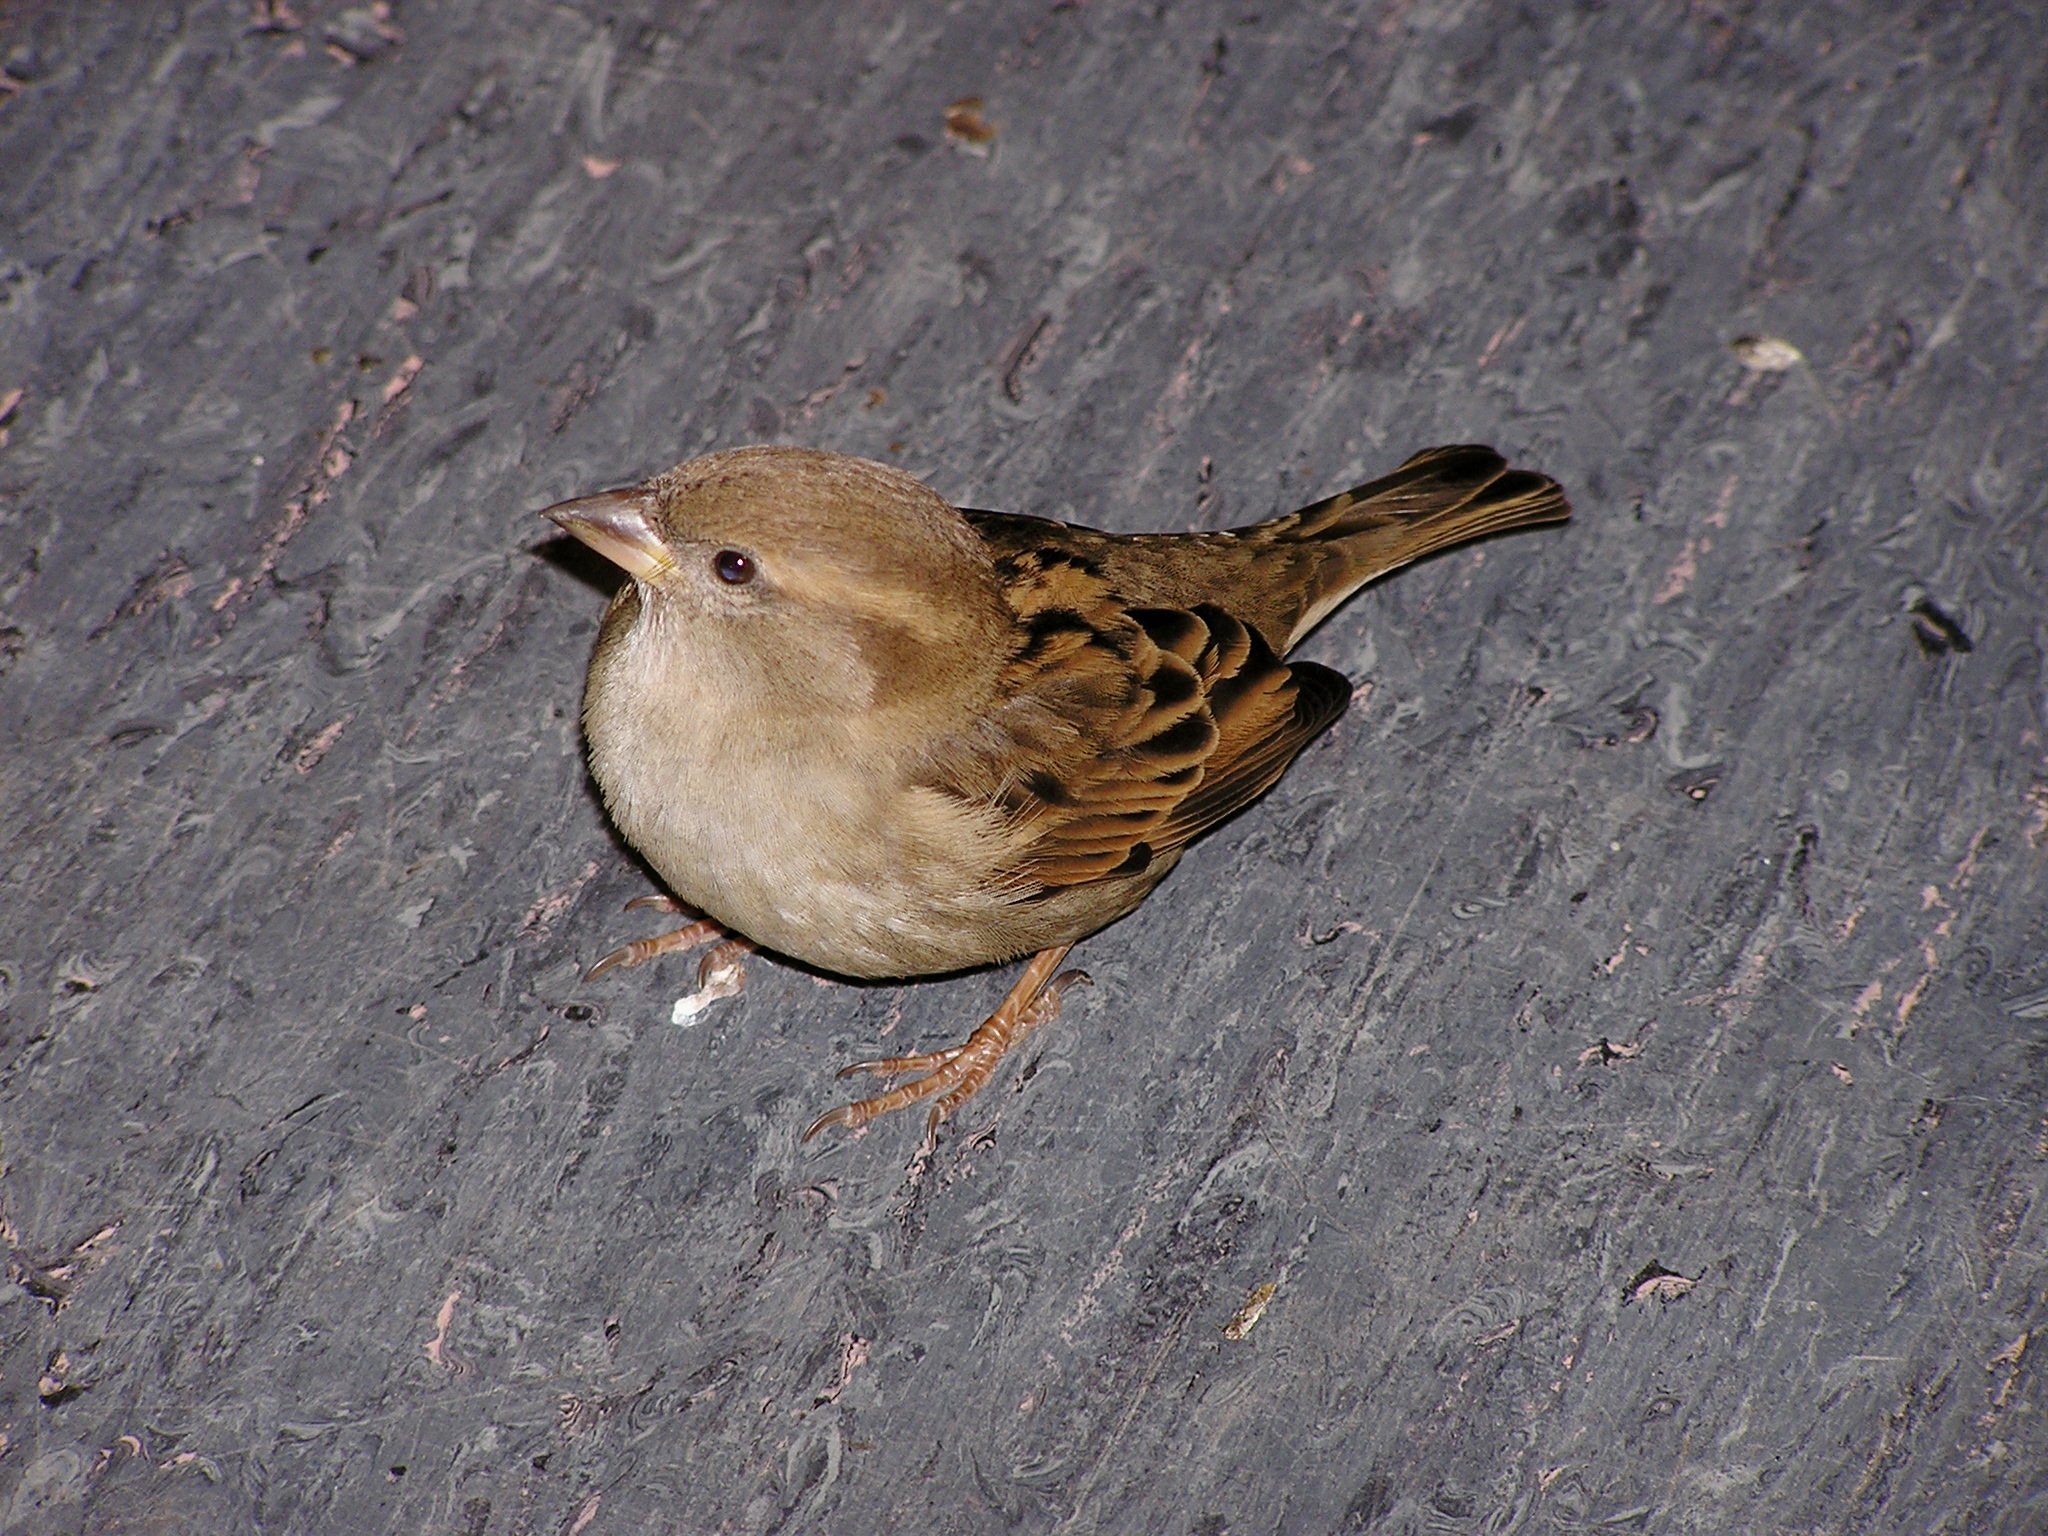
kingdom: Animalia
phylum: Chordata
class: Aves
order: Passeriformes
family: Passeridae
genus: Passer
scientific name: Passer domesticus
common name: House sparrow
